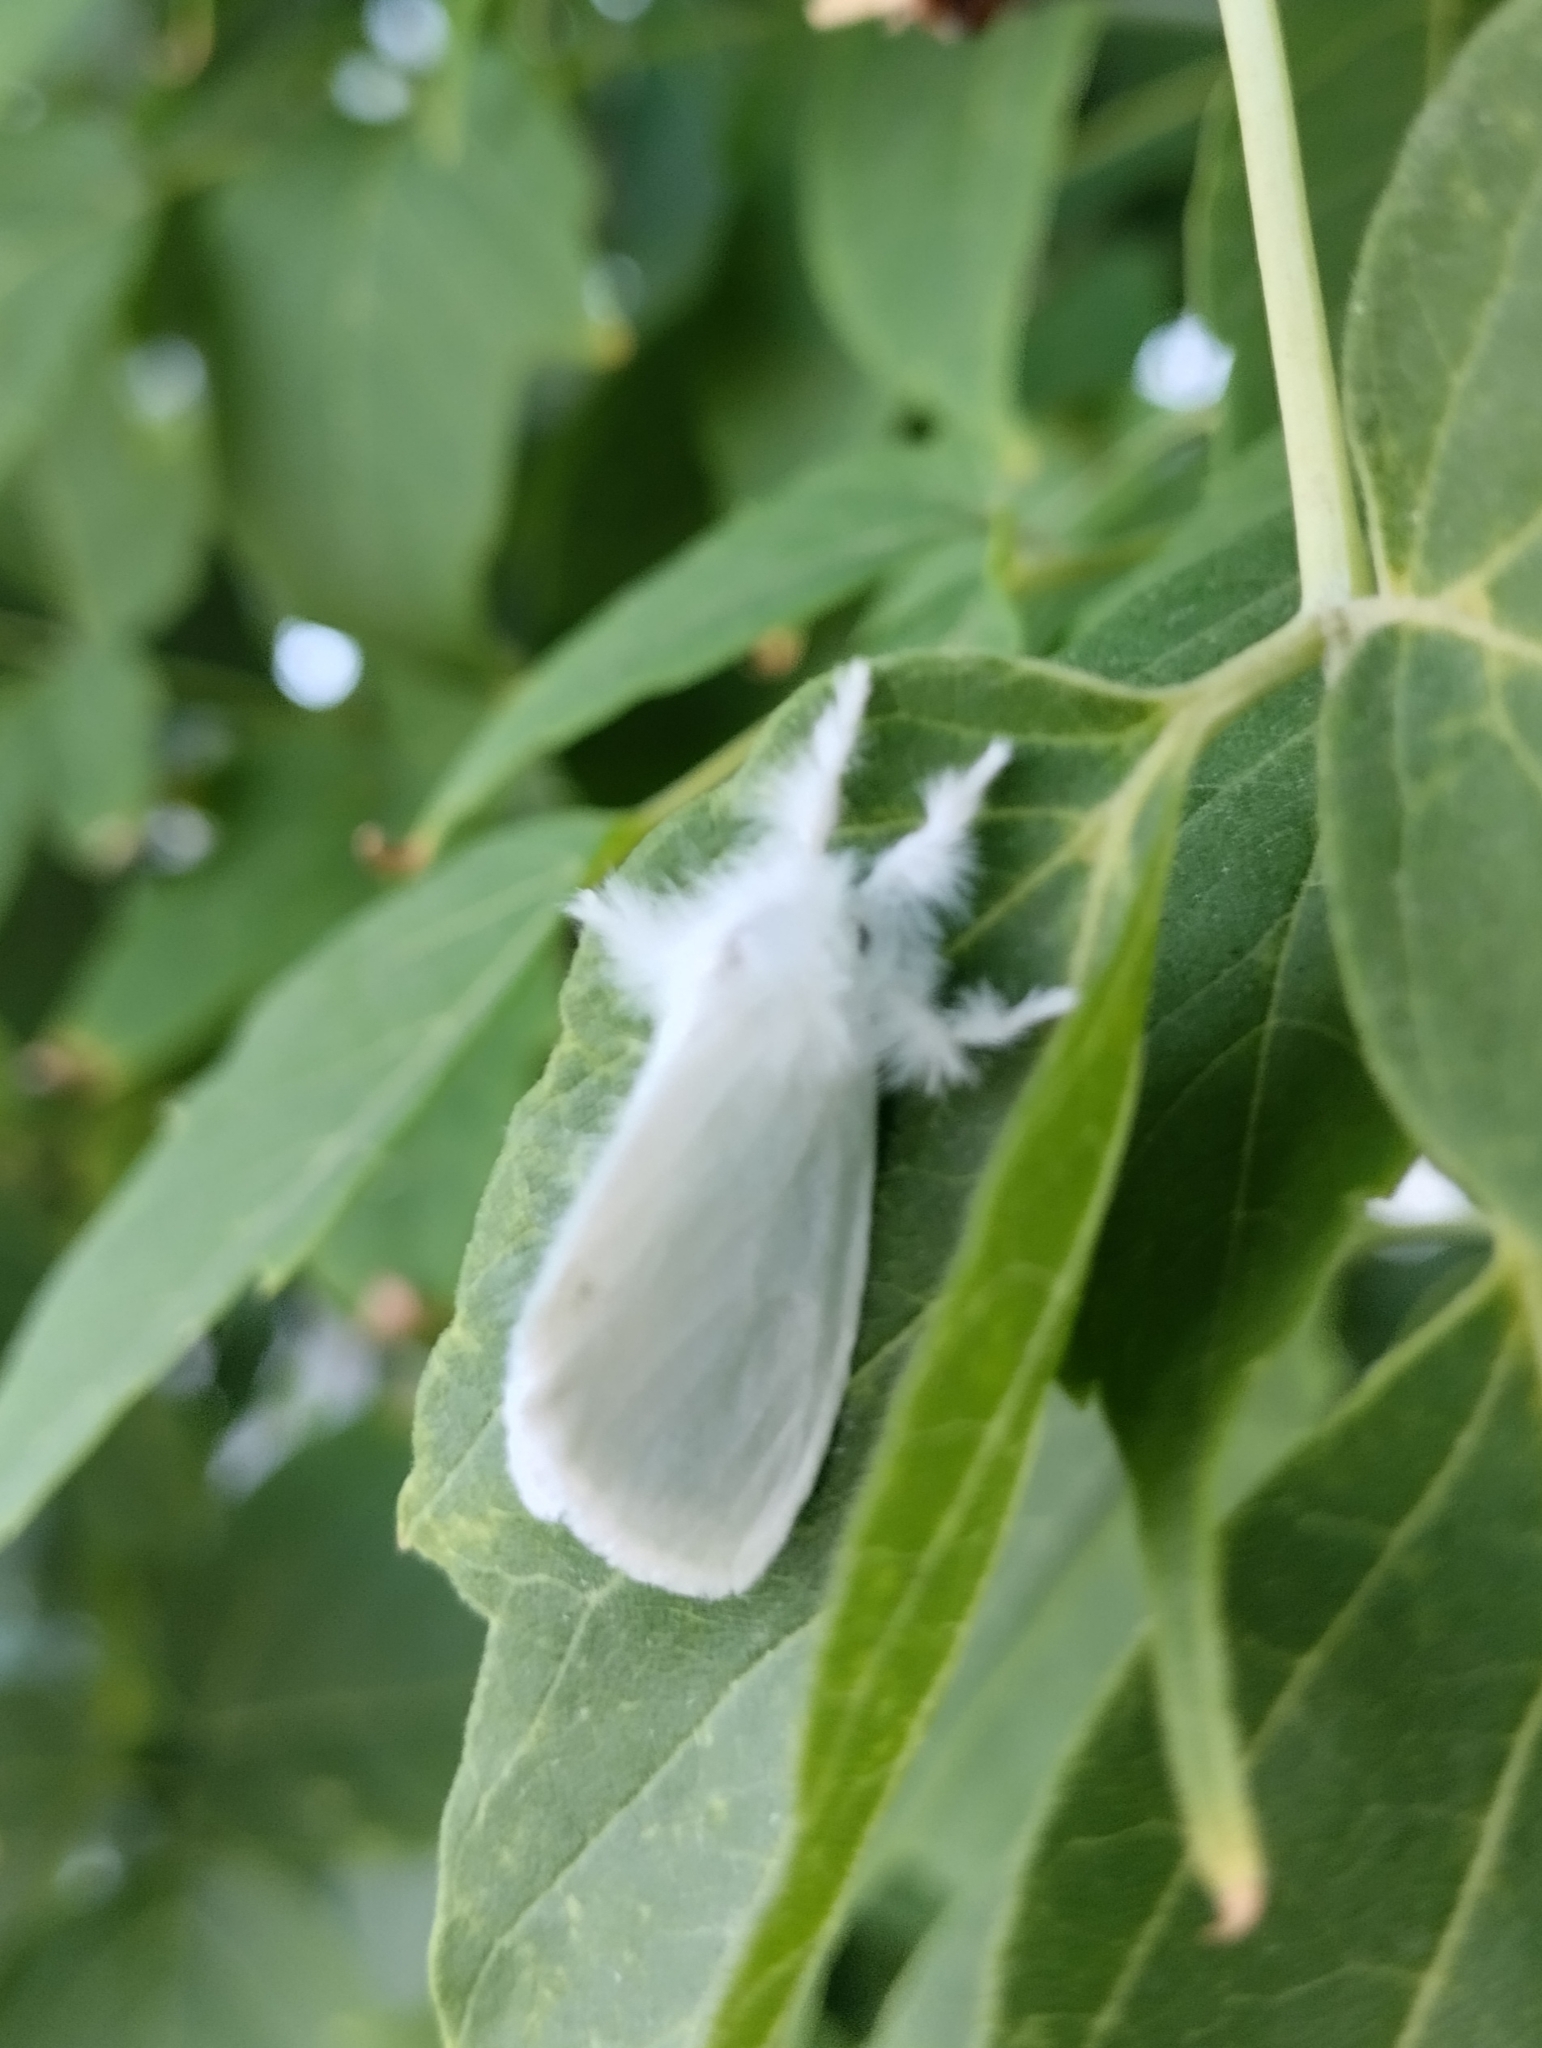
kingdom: Animalia
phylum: Arthropoda
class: Insecta
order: Lepidoptera
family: Erebidae
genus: Sphrageidus
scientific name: Sphrageidus similis
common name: Yellow-tail
